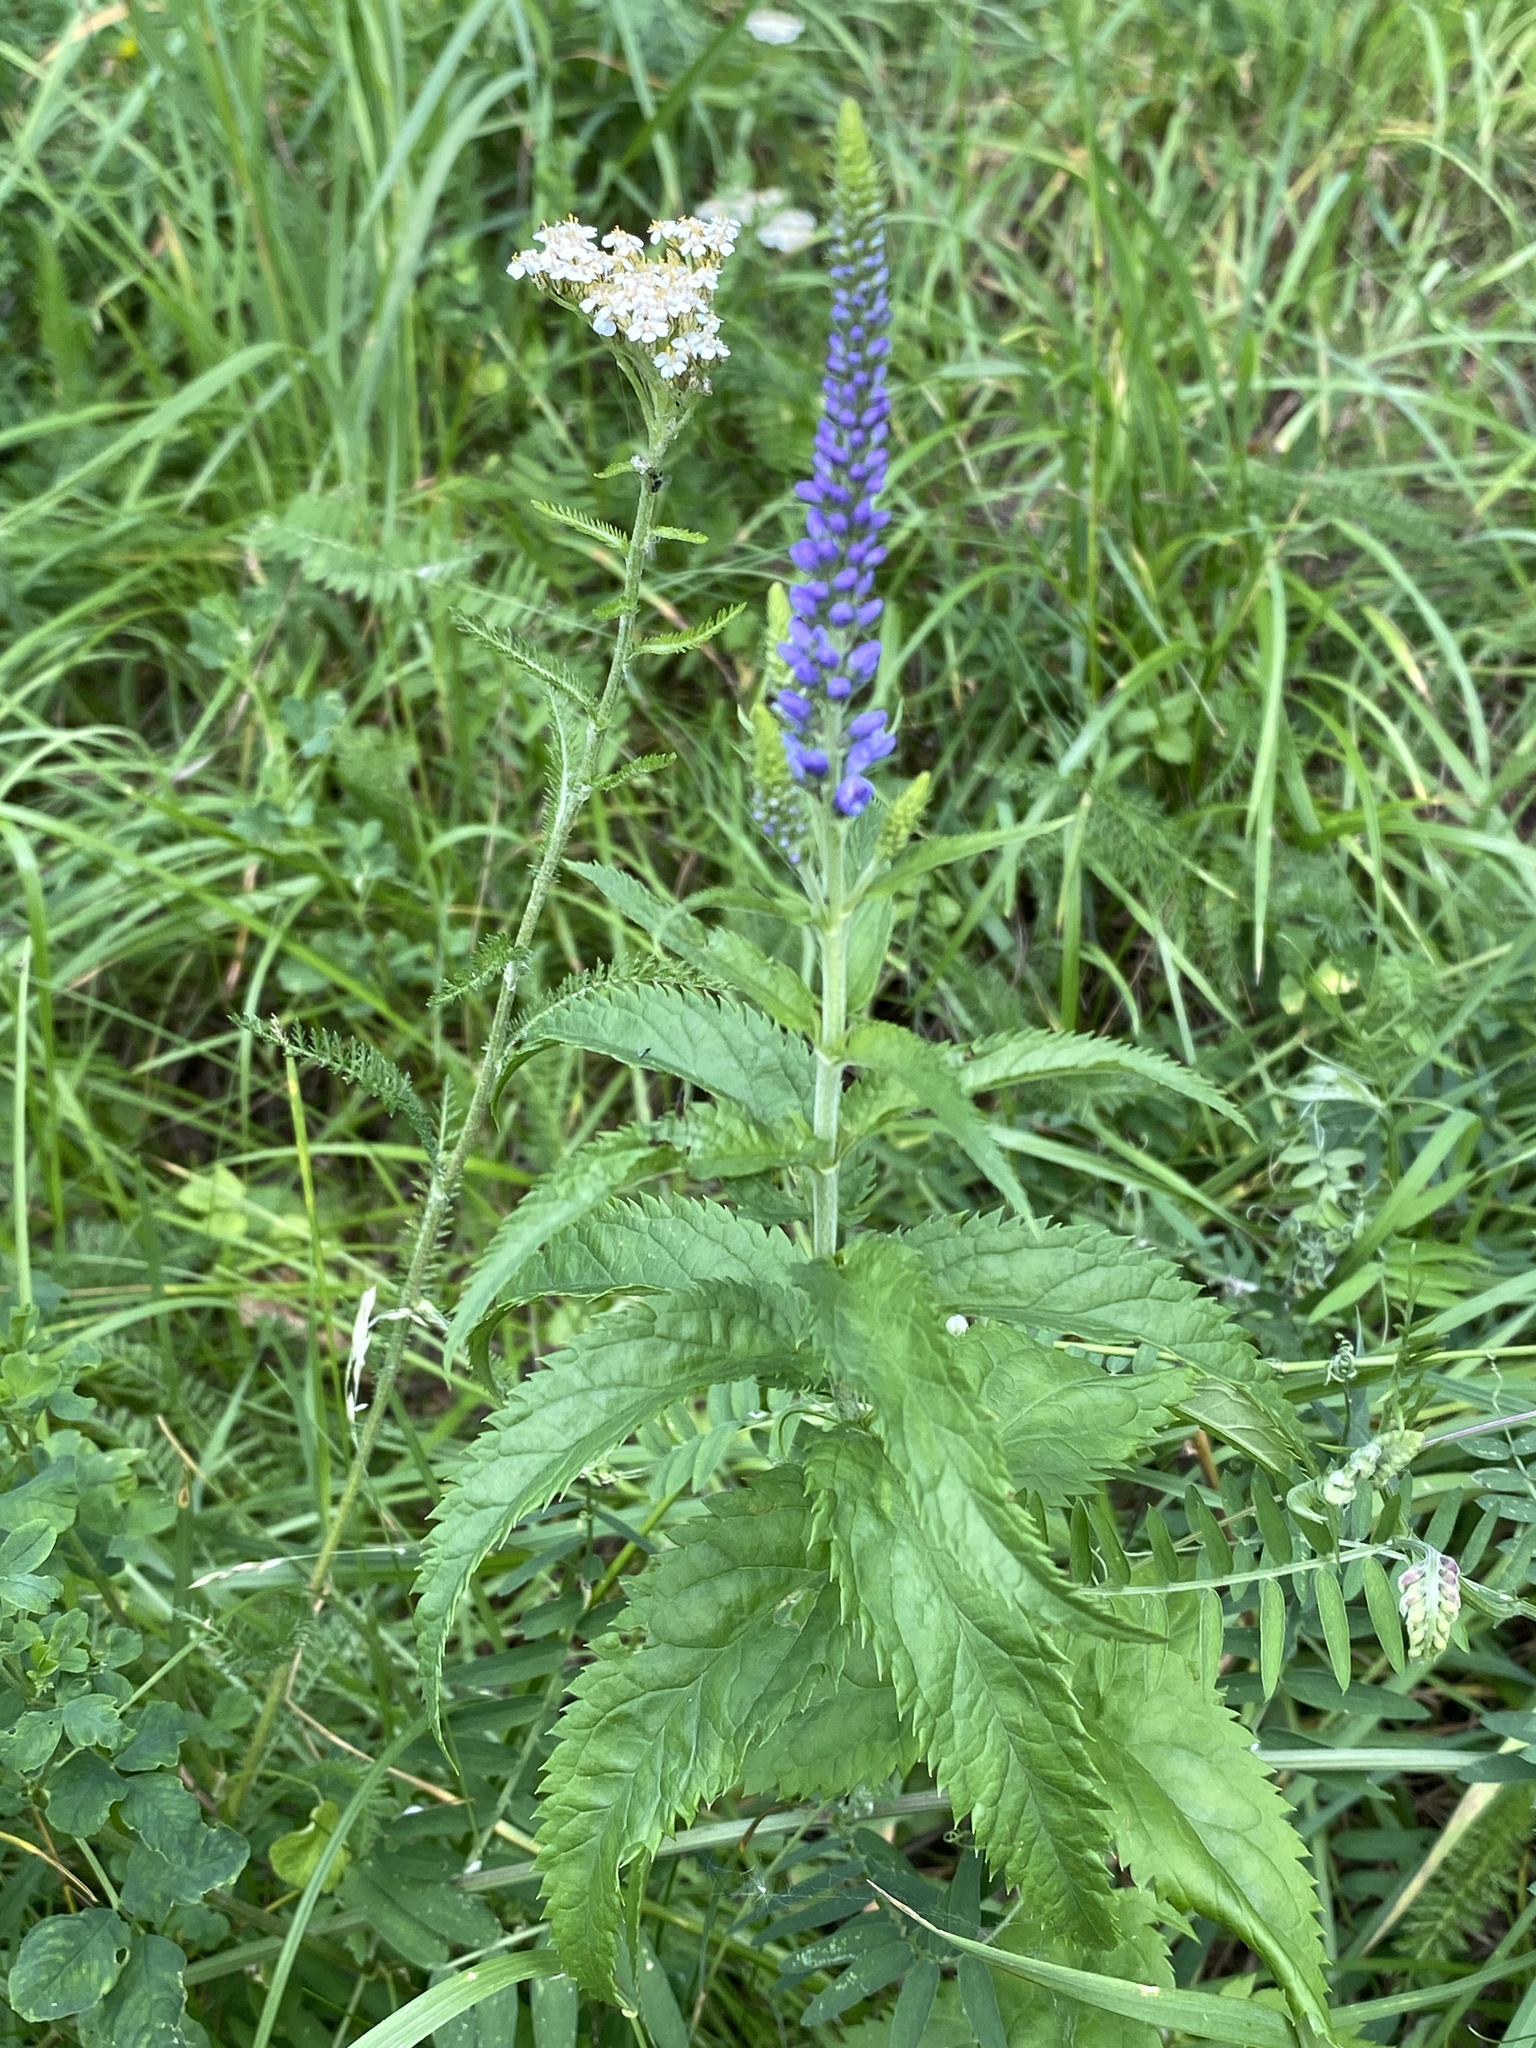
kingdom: Plantae
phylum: Tracheophyta
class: Magnoliopsida
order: Lamiales
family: Plantaginaceae
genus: Veronica
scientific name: Veronica longifolia
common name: Garden speedwell
